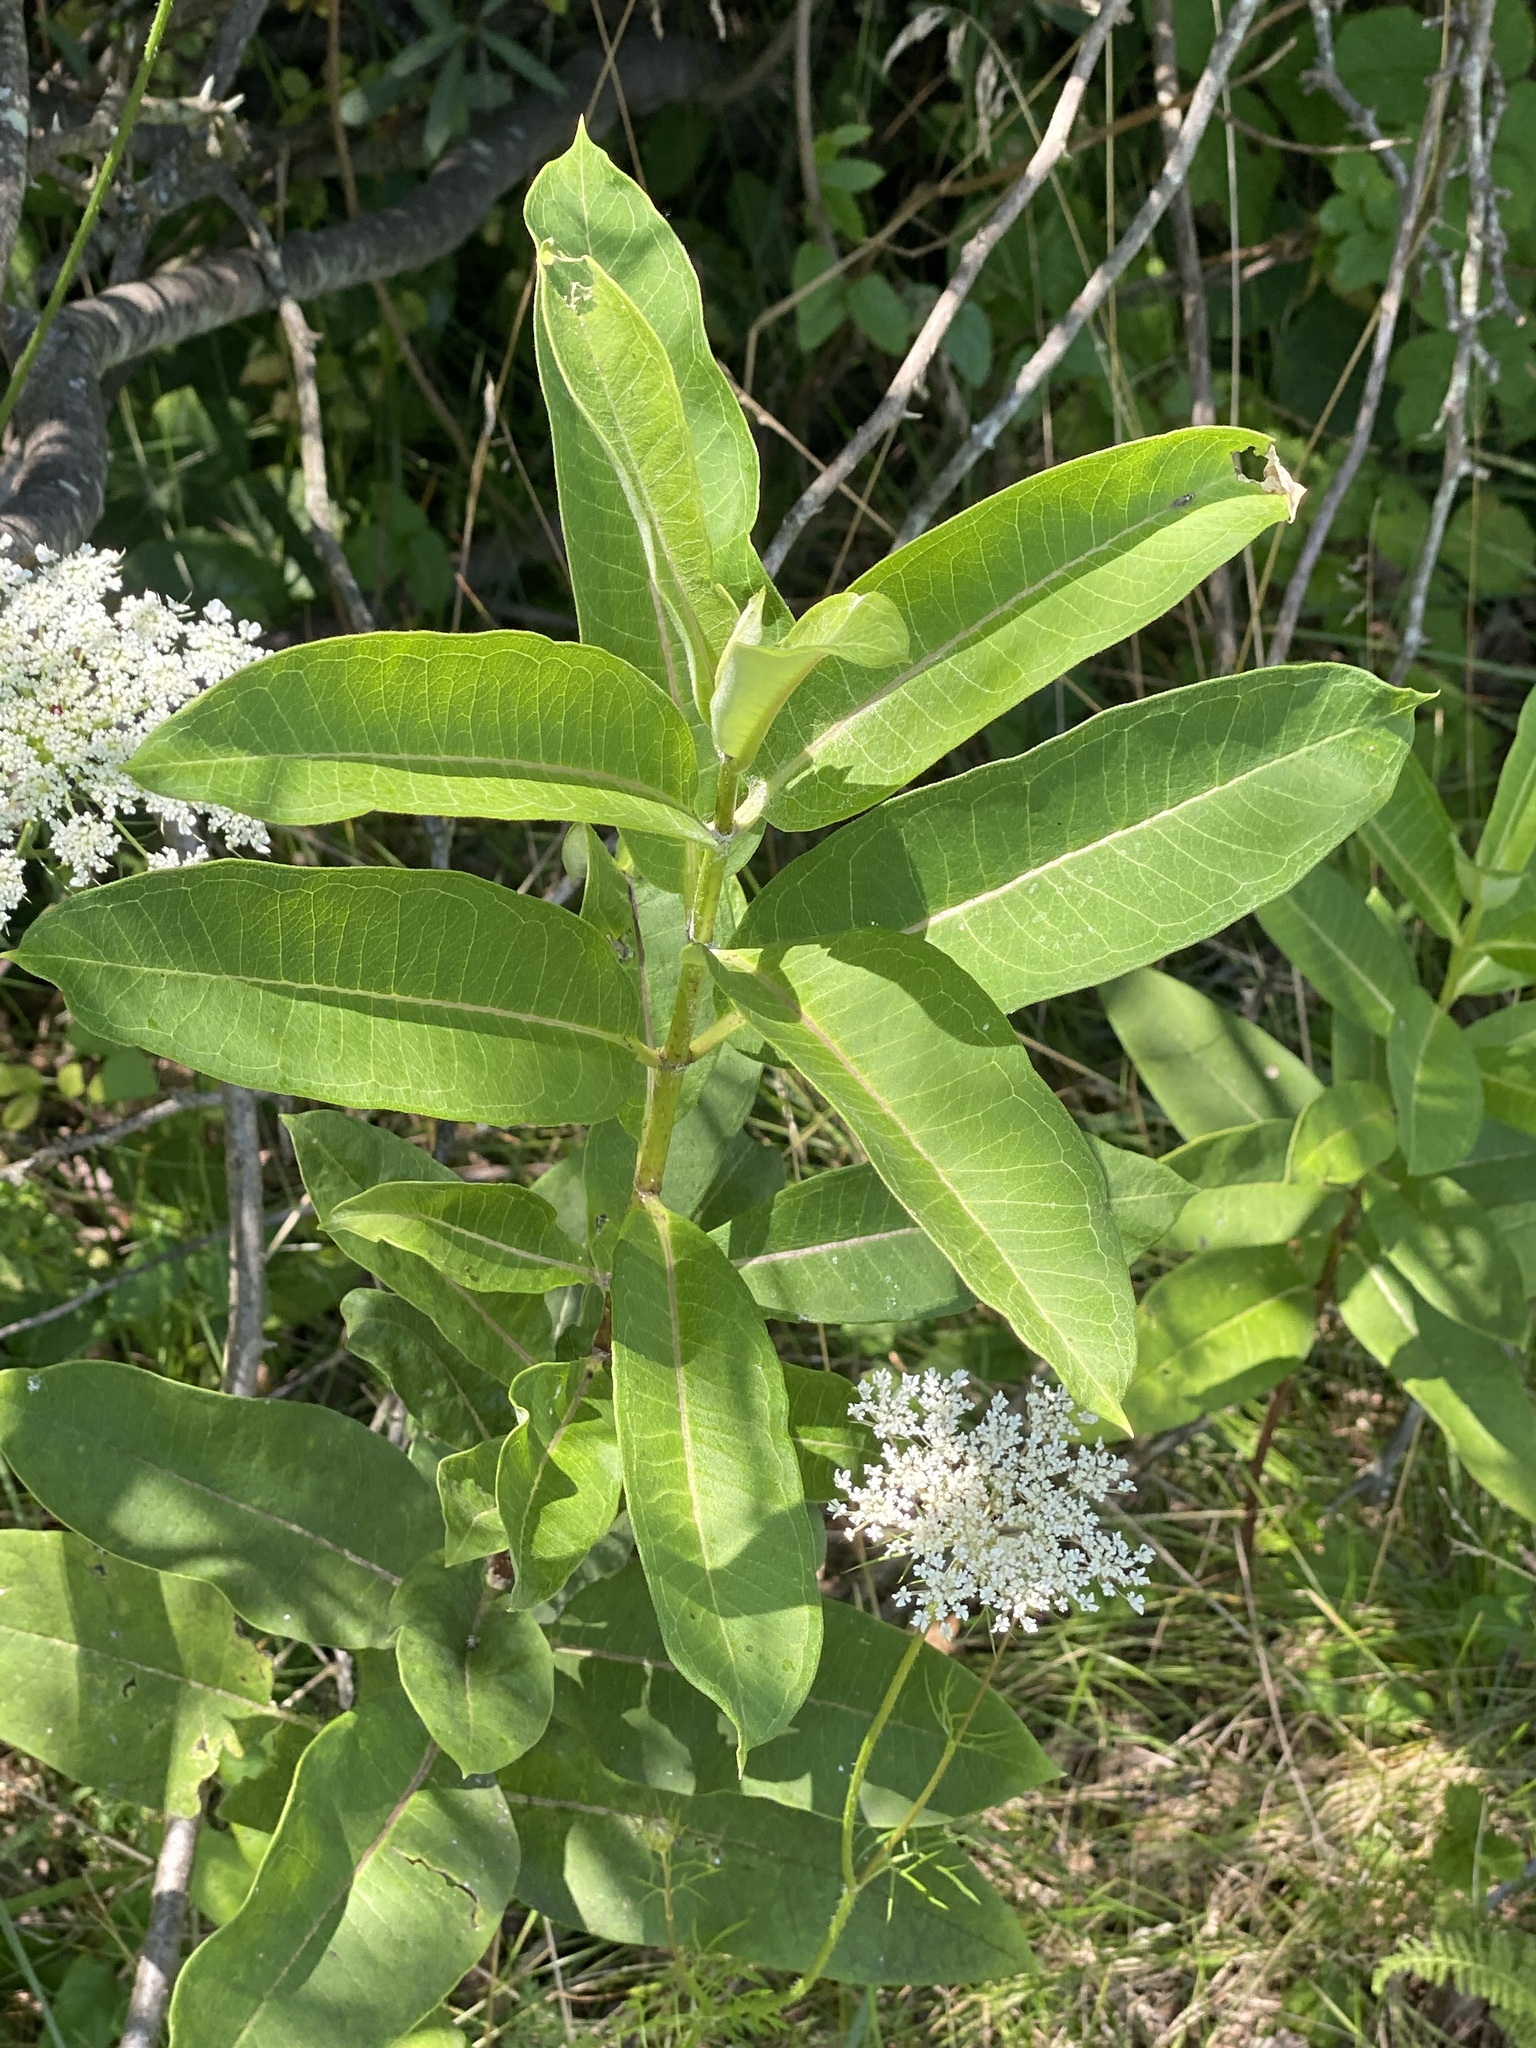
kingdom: Plantae
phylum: Tracheophyta
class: Magnoliopsida
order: Gentianales
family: Apocynaceae
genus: Asclepias
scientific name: Asclepias syriaca
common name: Common milkweed
